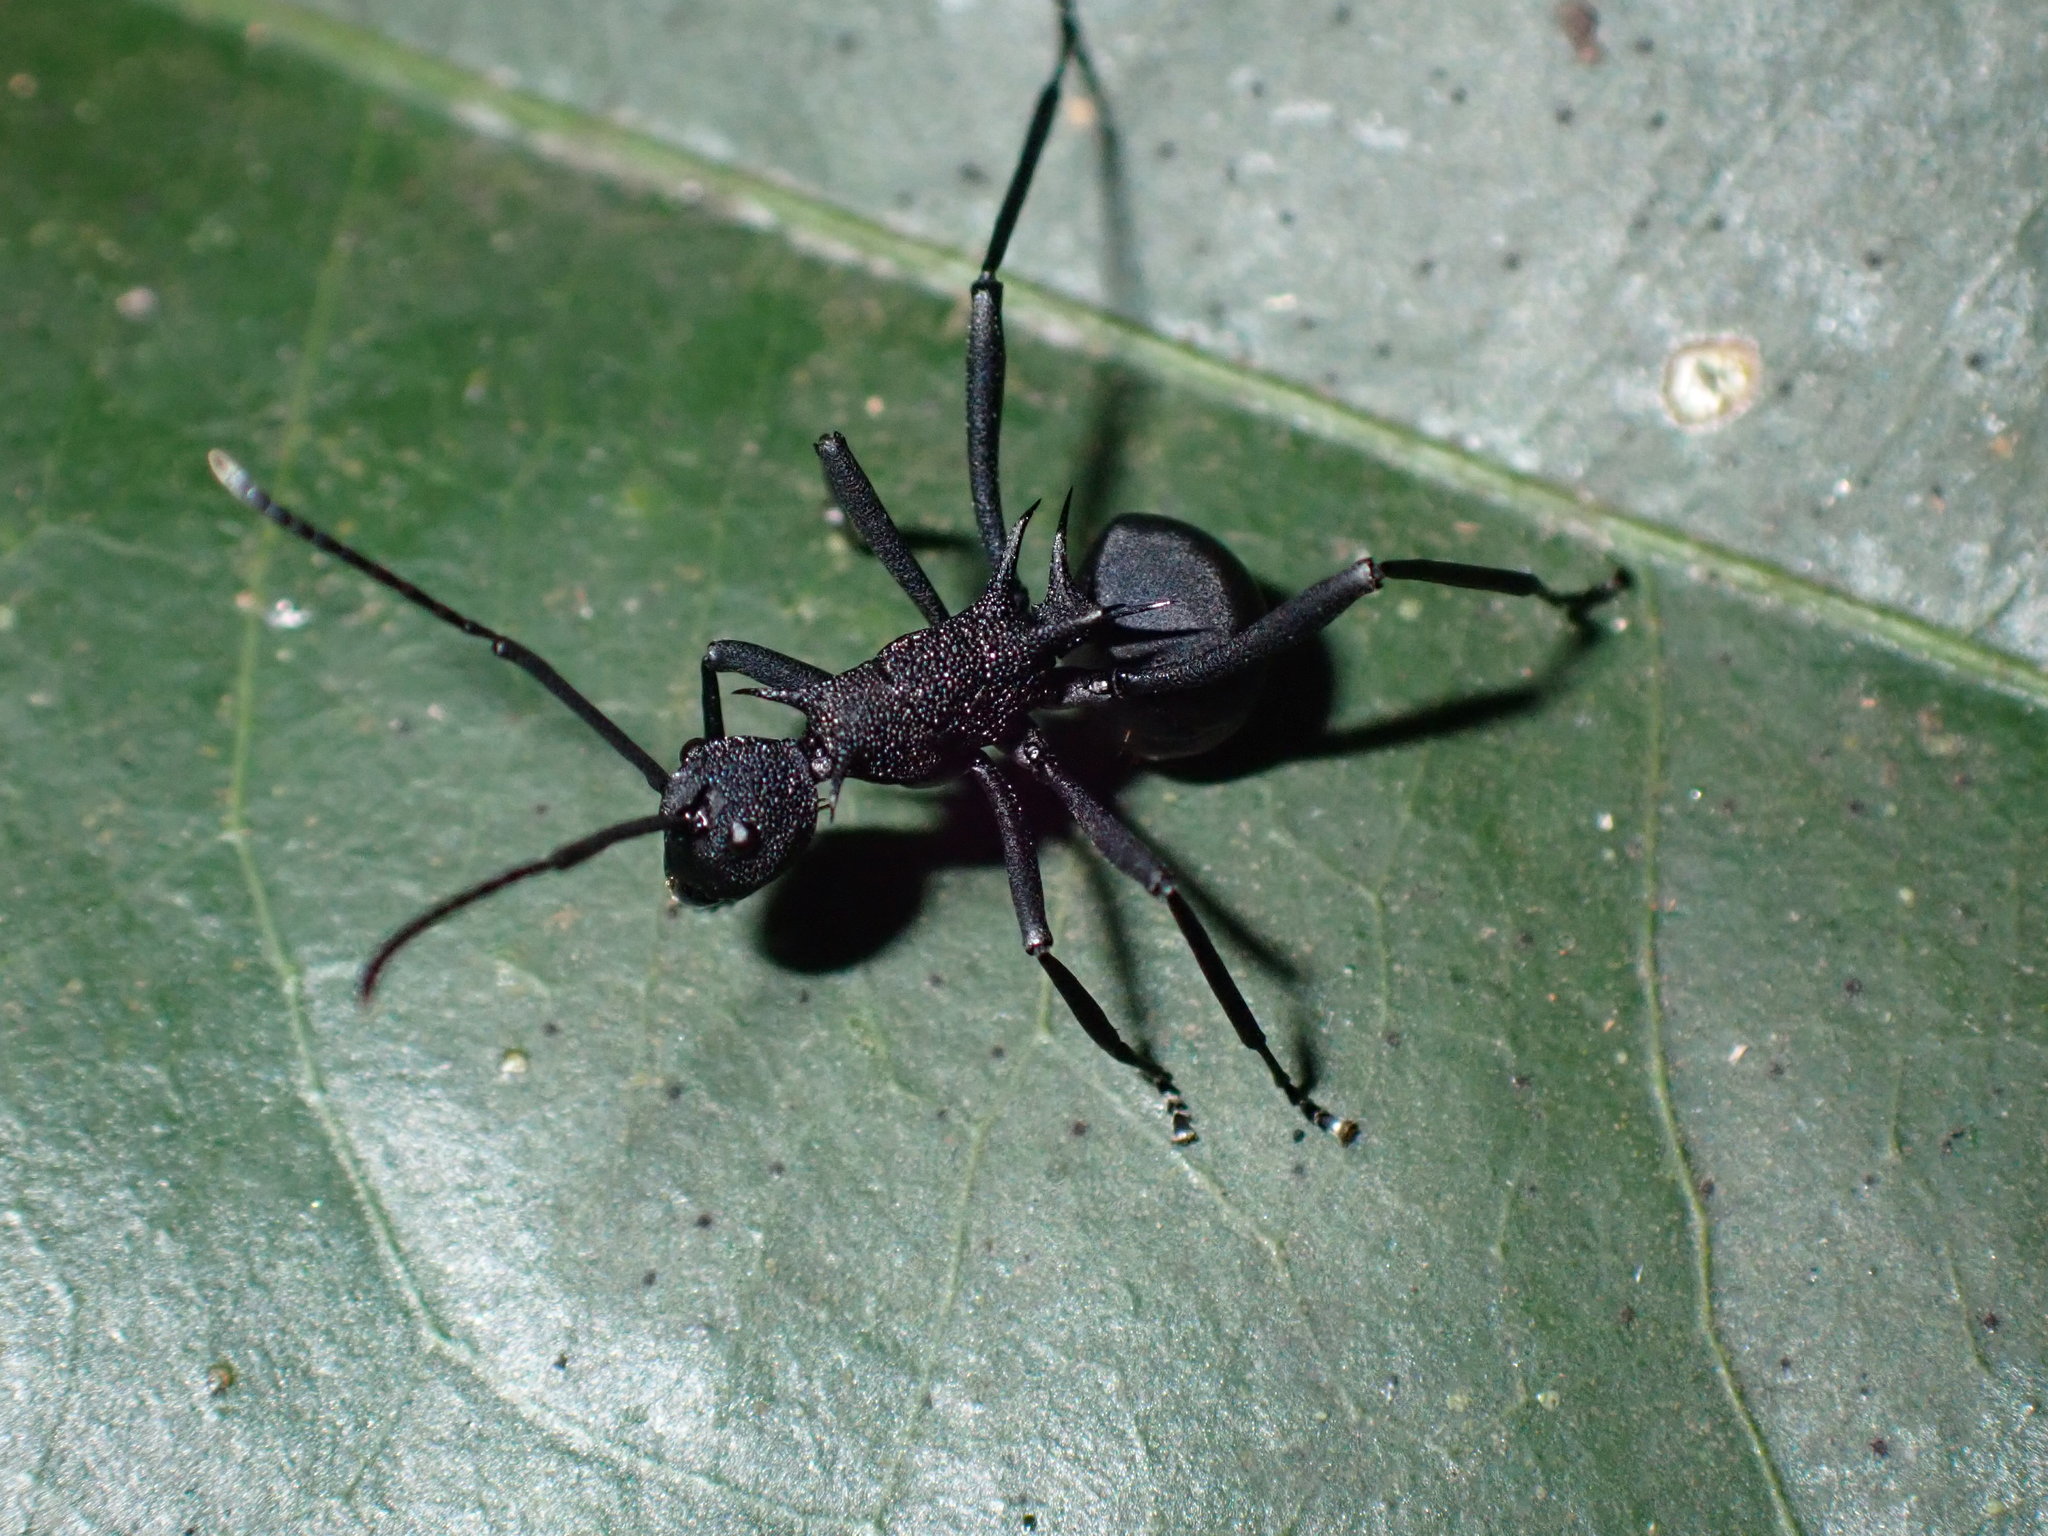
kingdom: Animalia
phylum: Arthropoda
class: Insecta
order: Hymenoptera
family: Formicidae
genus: Polyrhachis
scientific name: Polyrhachis armata
